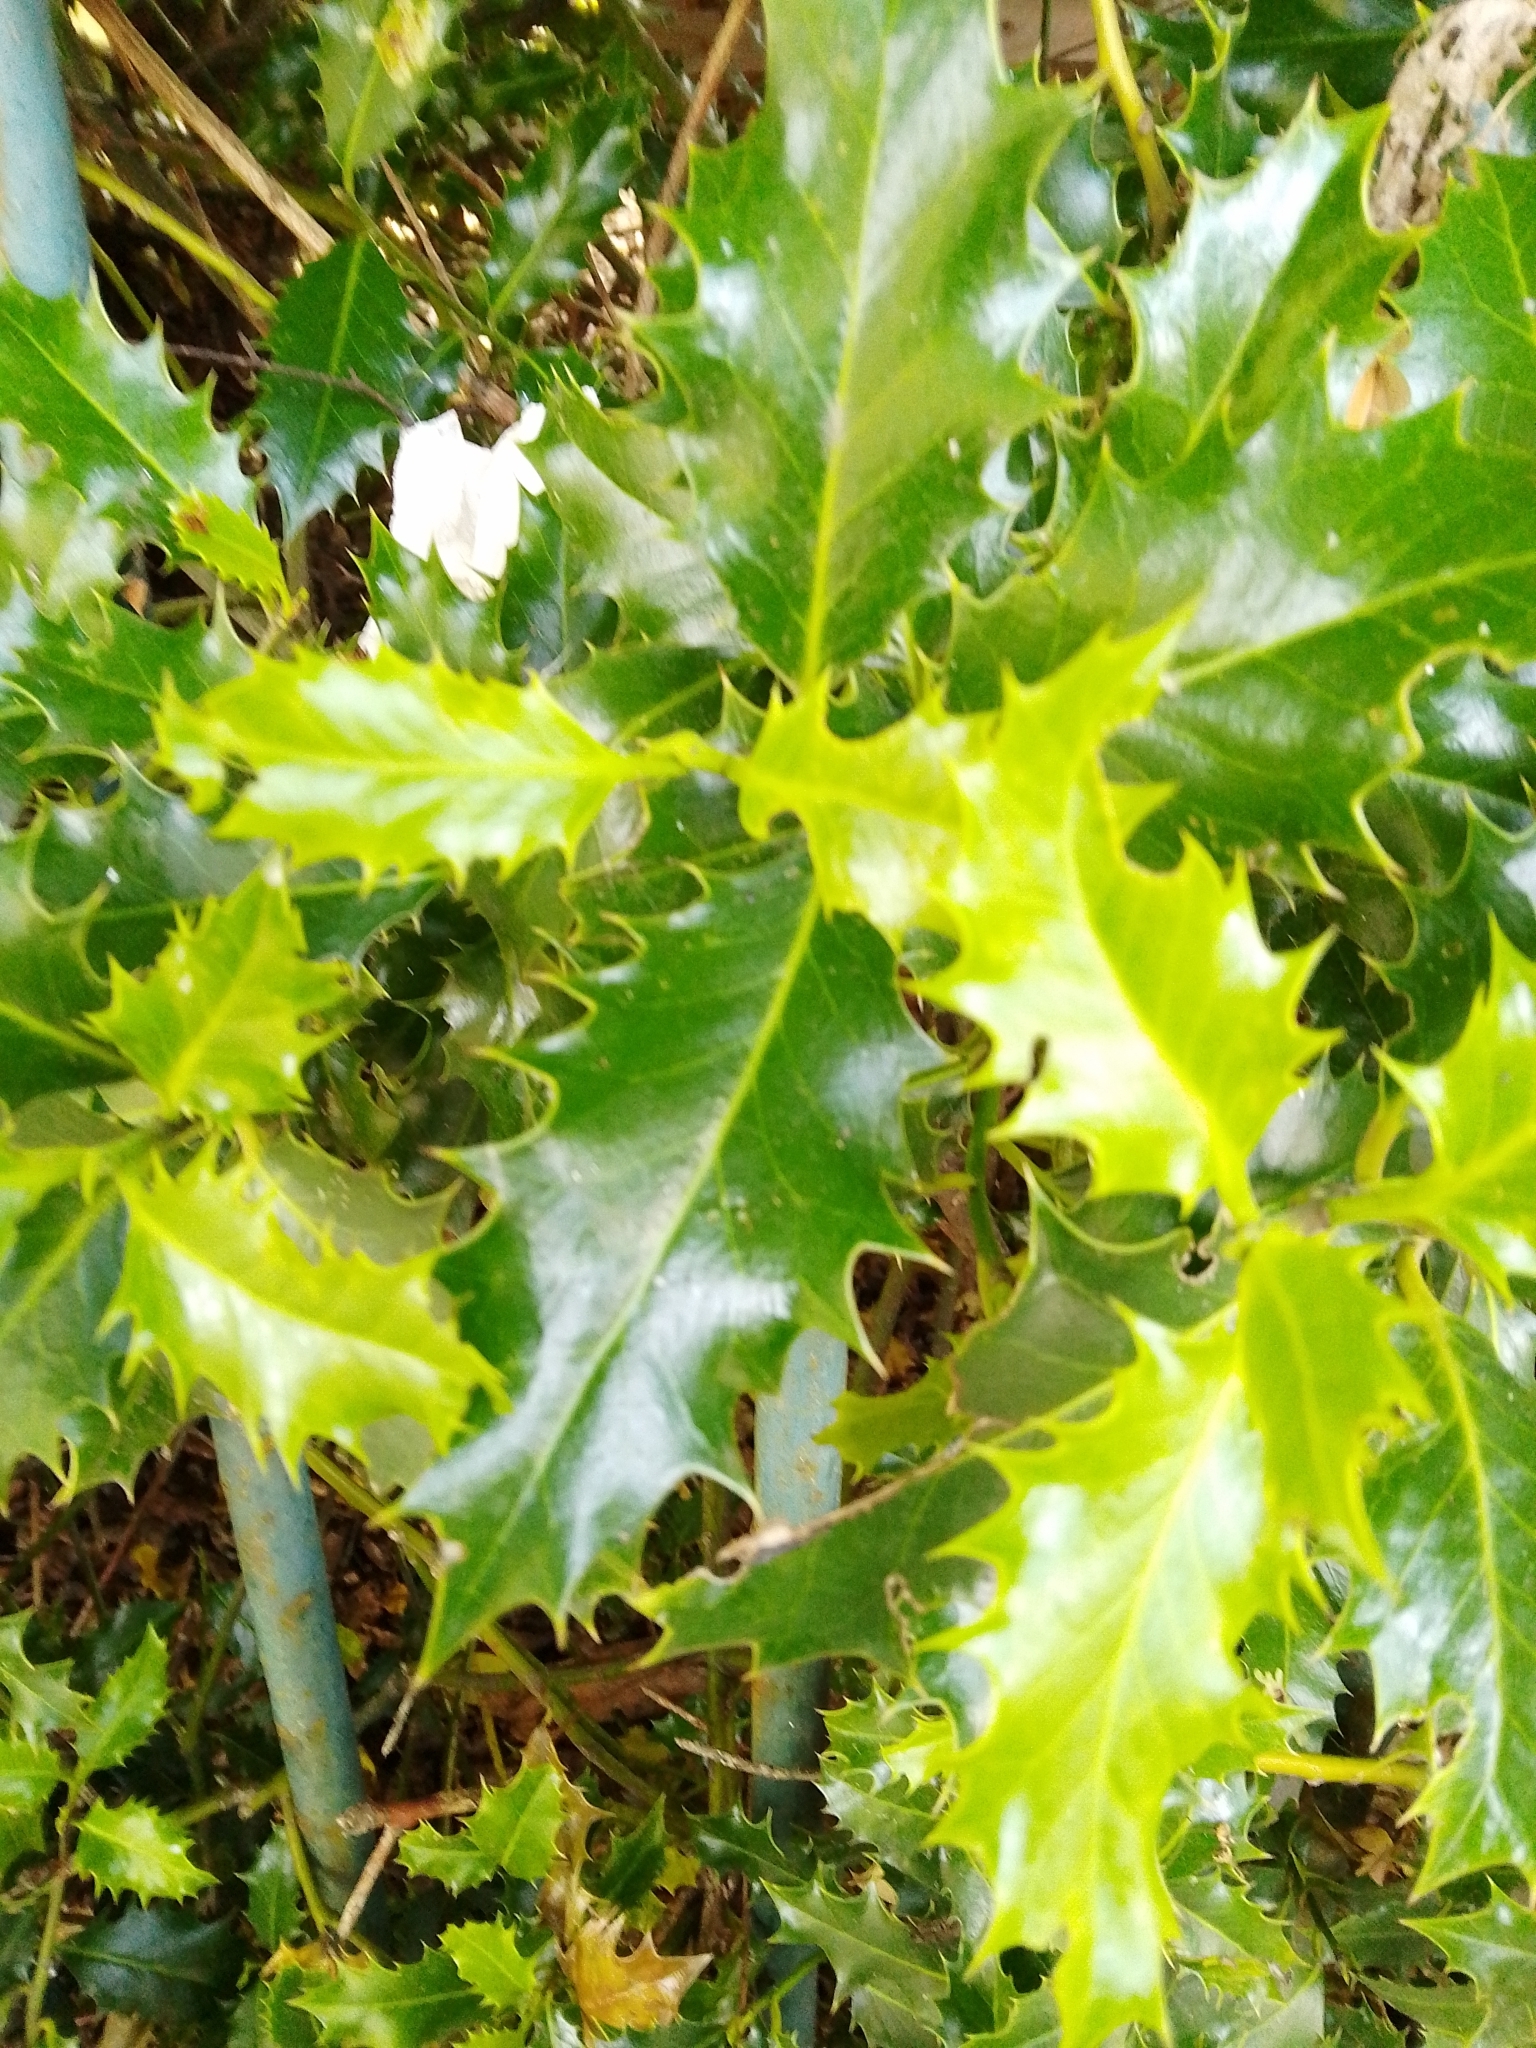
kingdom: Plantae
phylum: Tracheophyta
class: Magnoliopsida
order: Aquifoliales
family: Aquifoliaceae
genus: Ilex
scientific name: Ilex aquifolium
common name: English holly
